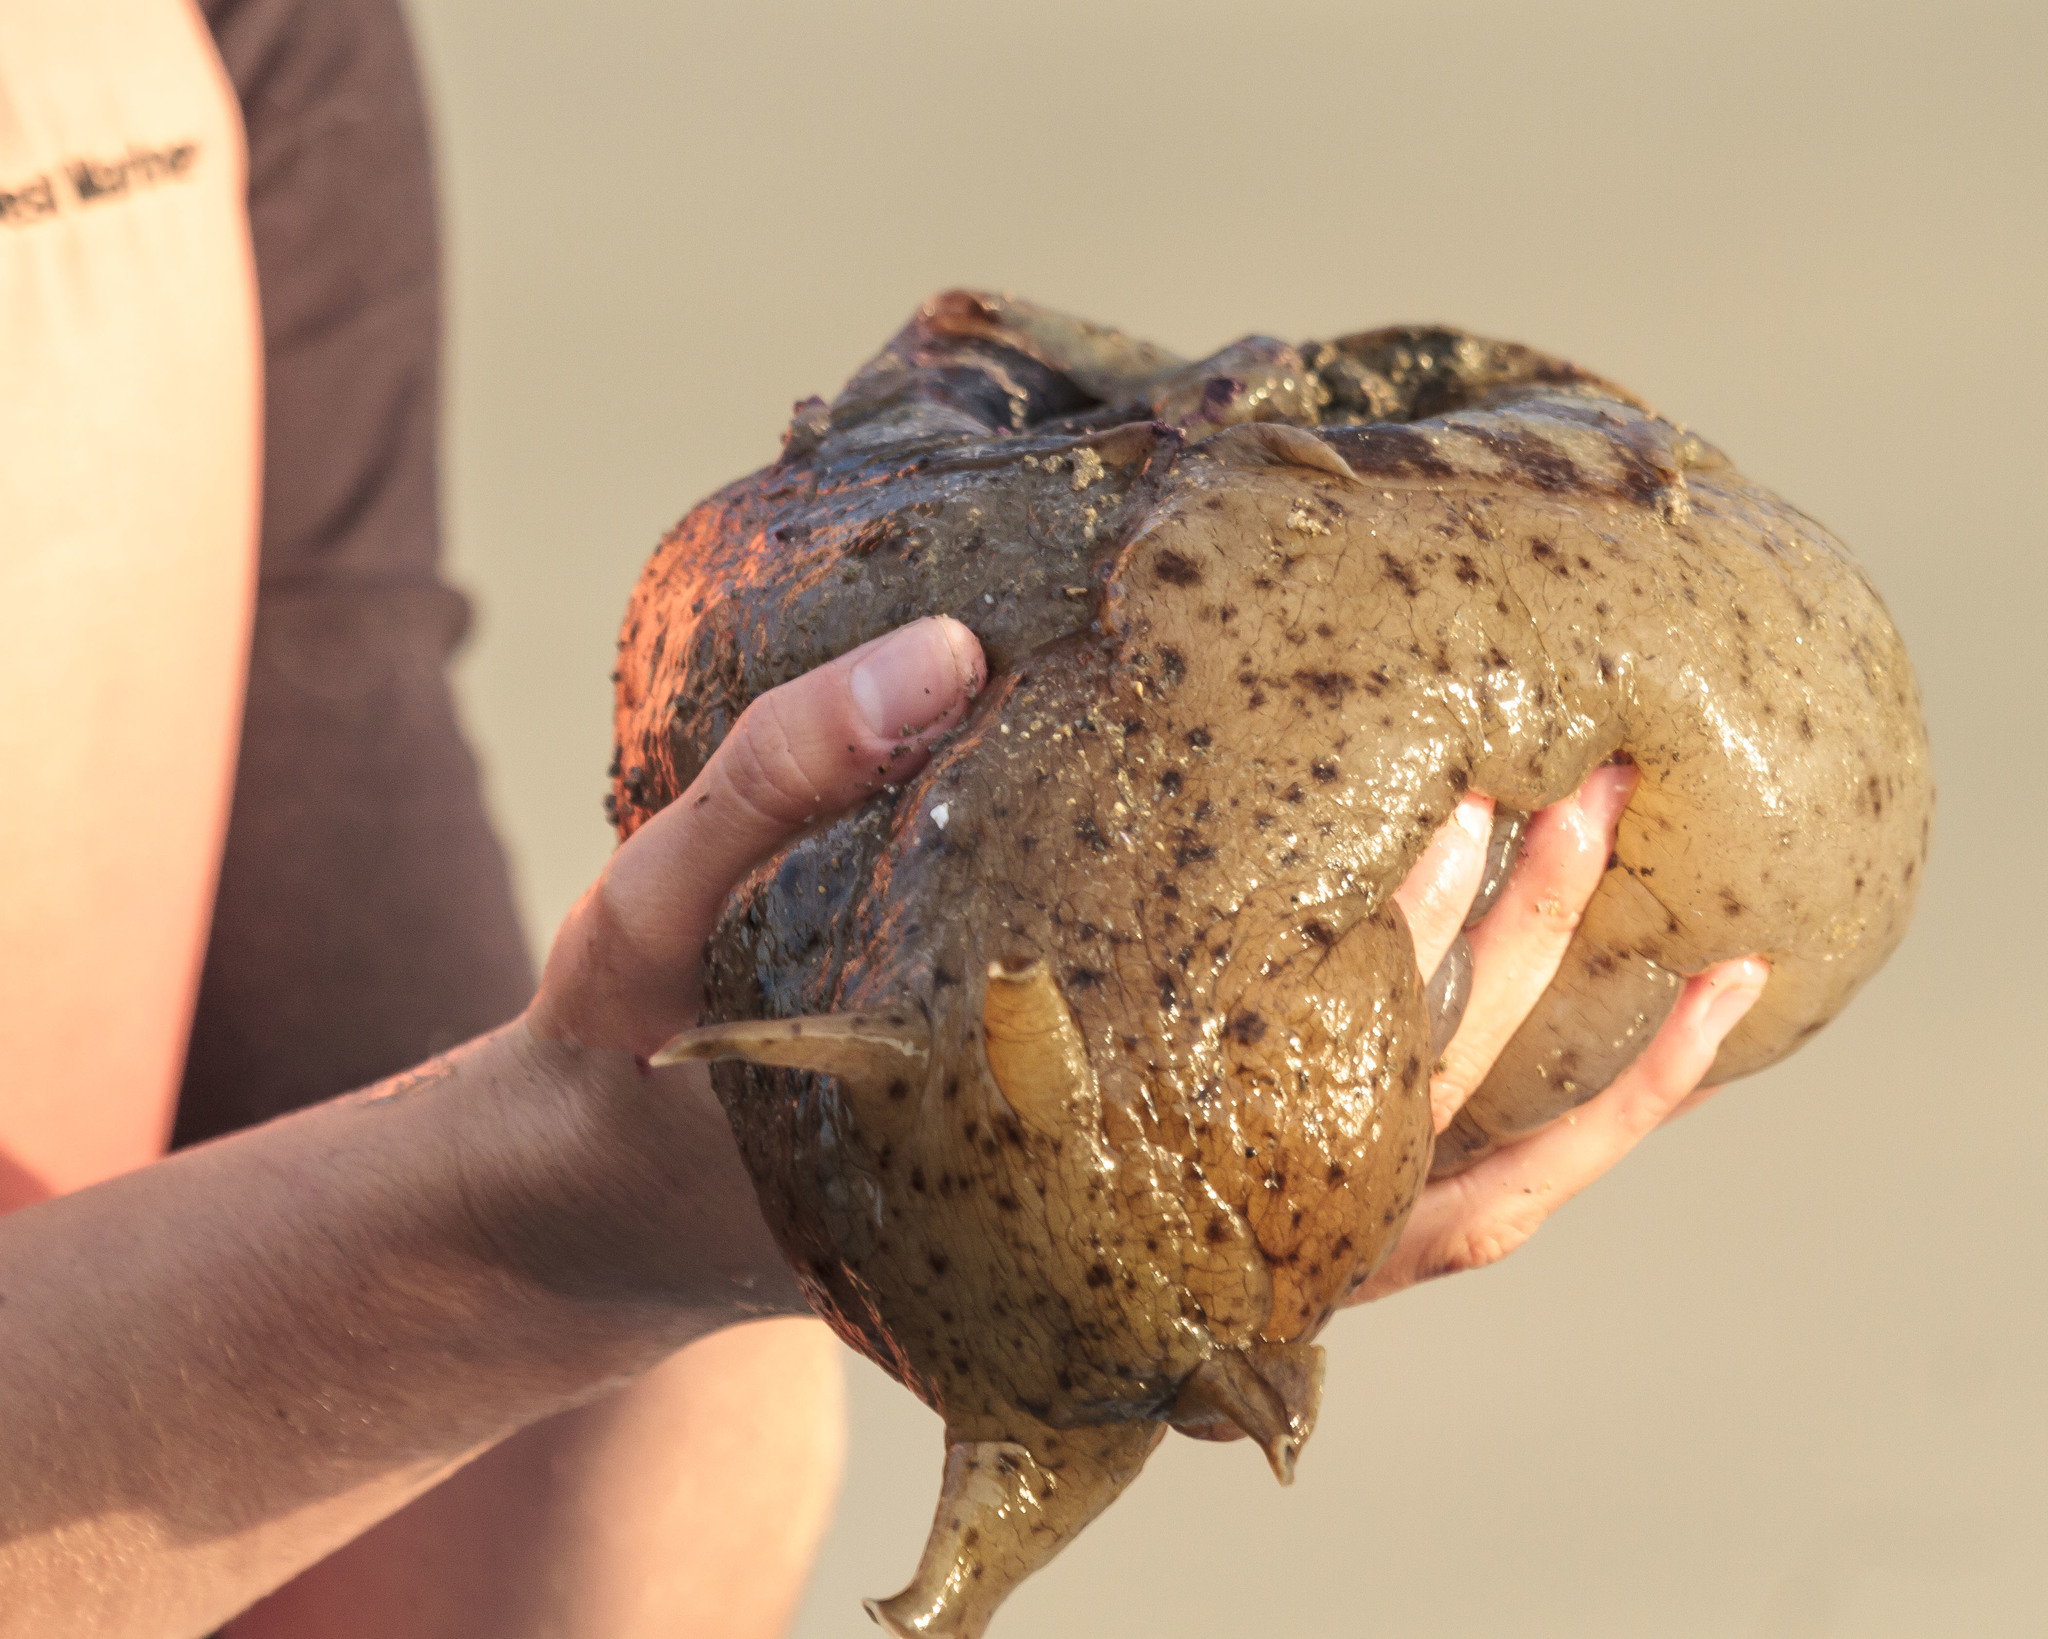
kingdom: Animalia
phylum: Mollusca
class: Gastropoda
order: Aplysiida
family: Aplysiidae
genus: Aplysia
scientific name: Aplysia californica
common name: California seahare
